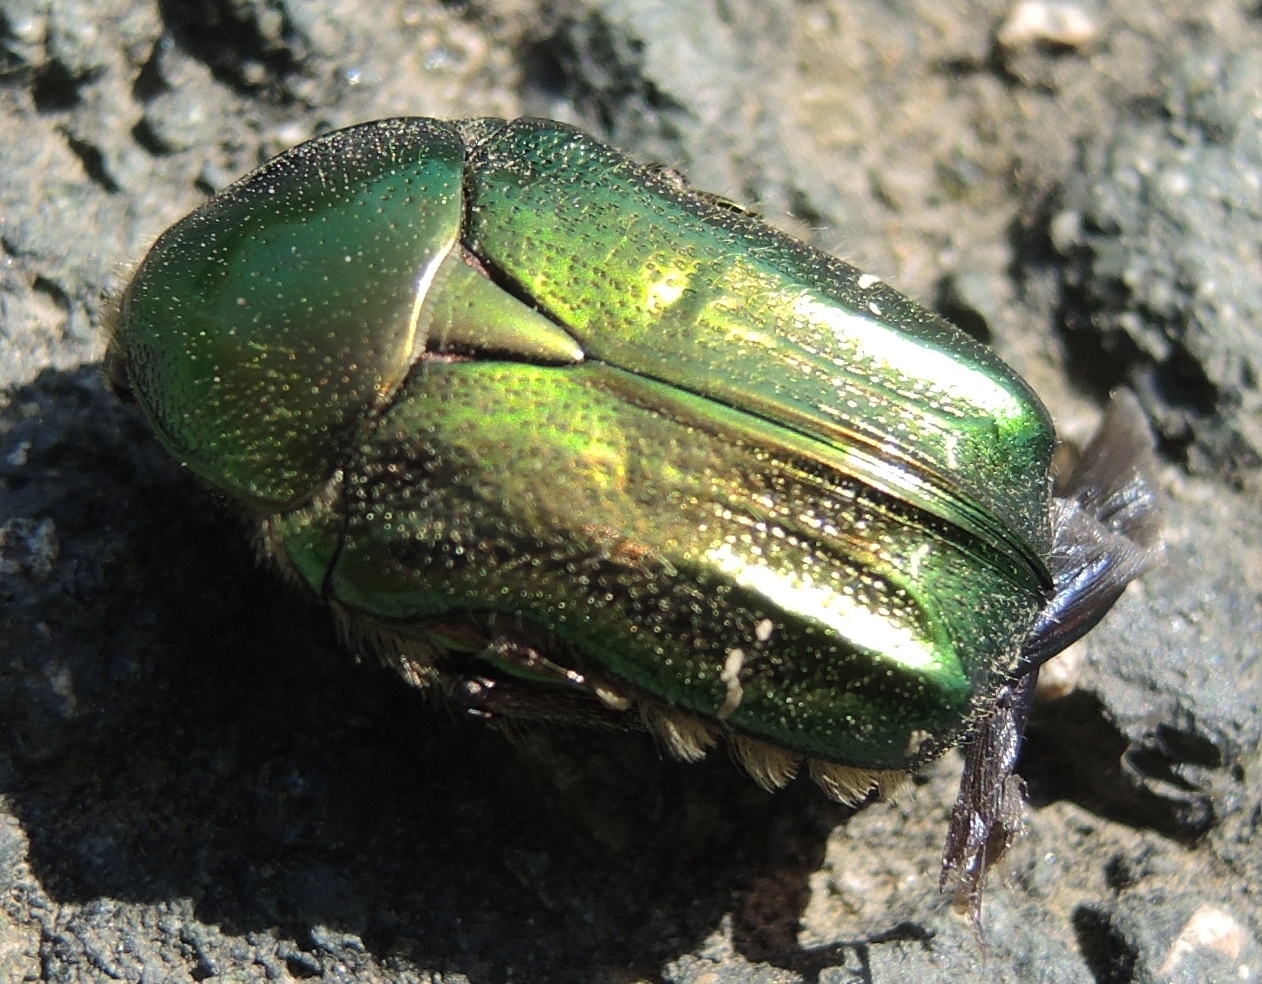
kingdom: Animalia
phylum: Arthropoda
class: Insecta
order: Coleoptera
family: Scarabaeidae
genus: Cetonia
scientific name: Cetonia aurata
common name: Rose chafer
